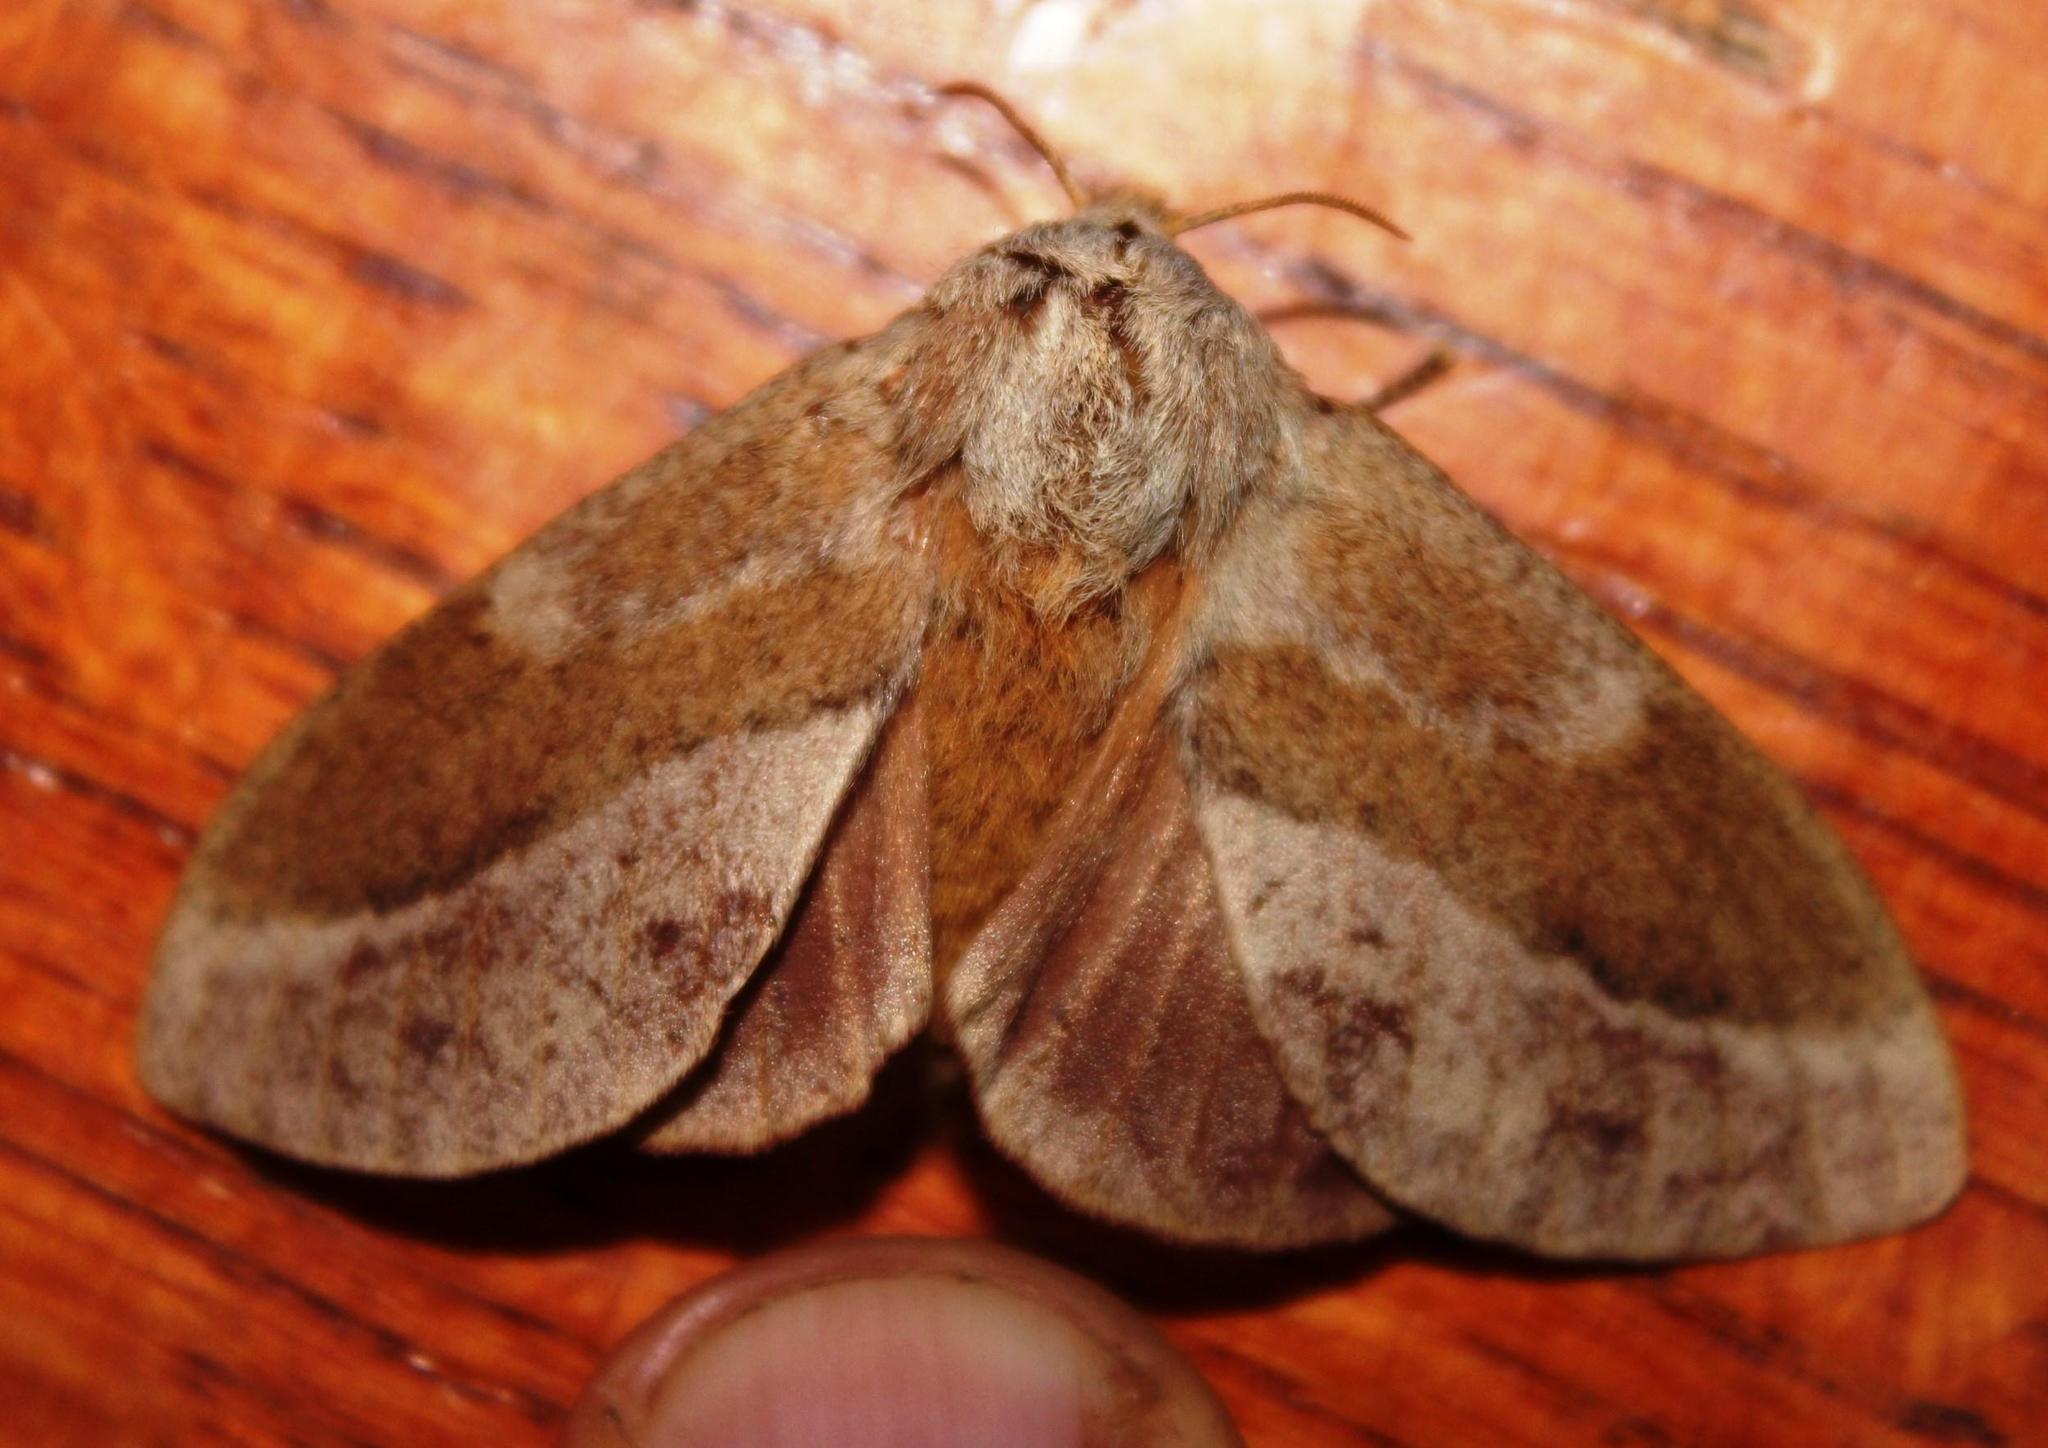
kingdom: Animalia
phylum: Arthropoda
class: Insecta
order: Lepidoptera
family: Lasiocampidae
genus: Eutricha
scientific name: Eutricha capensis
